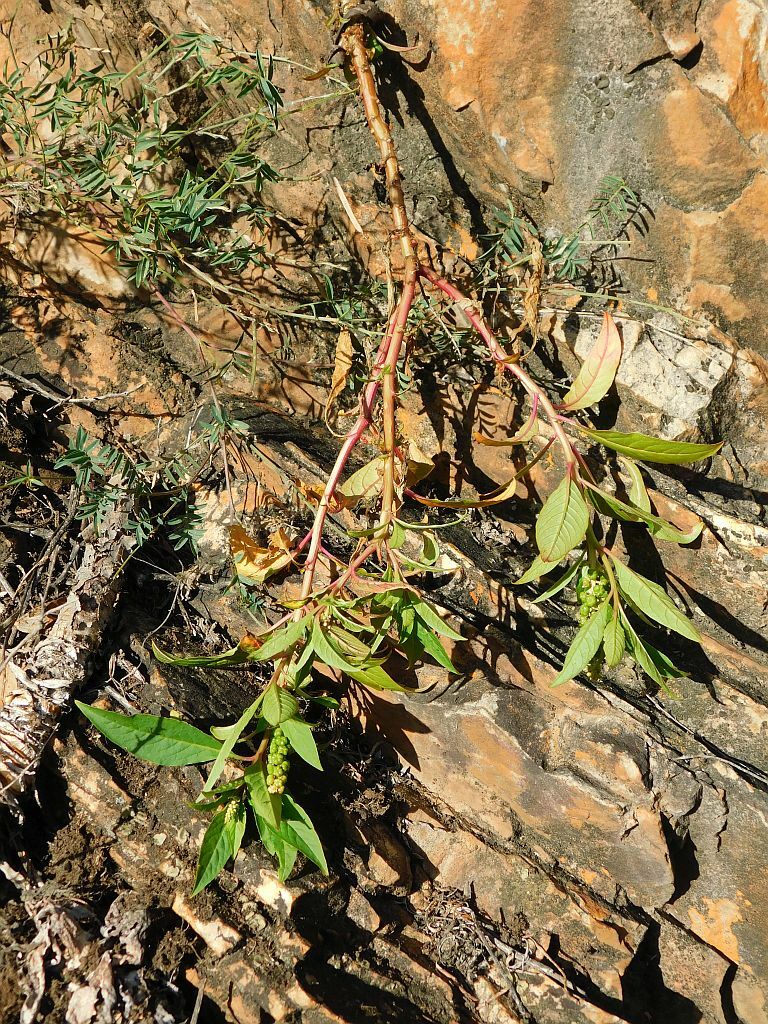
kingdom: Plantae
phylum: Tracheophyta
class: Magnoliopsida
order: Caryophyllales
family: Phytolaccaceae
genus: Phytolacca
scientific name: Phytolacca icosandra
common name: Button pokeweed
